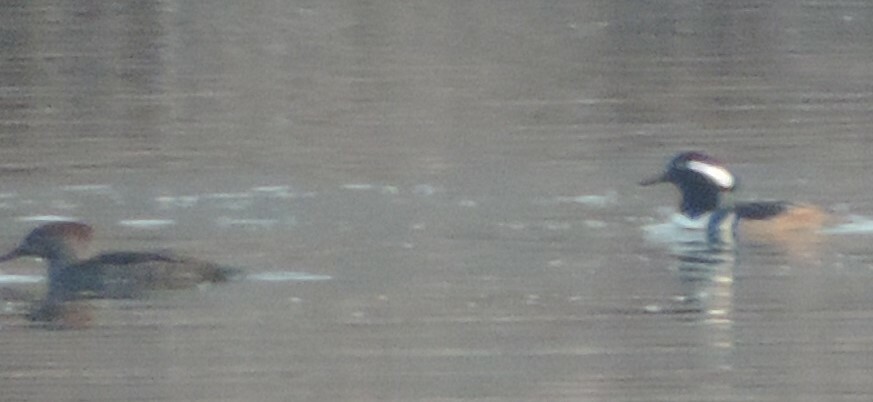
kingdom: Animalia
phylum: Chordata
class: Aves
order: Anseriformes
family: Anatidae
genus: Lophodytes
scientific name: Lophodytes cucullatus
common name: Hooded merganser
